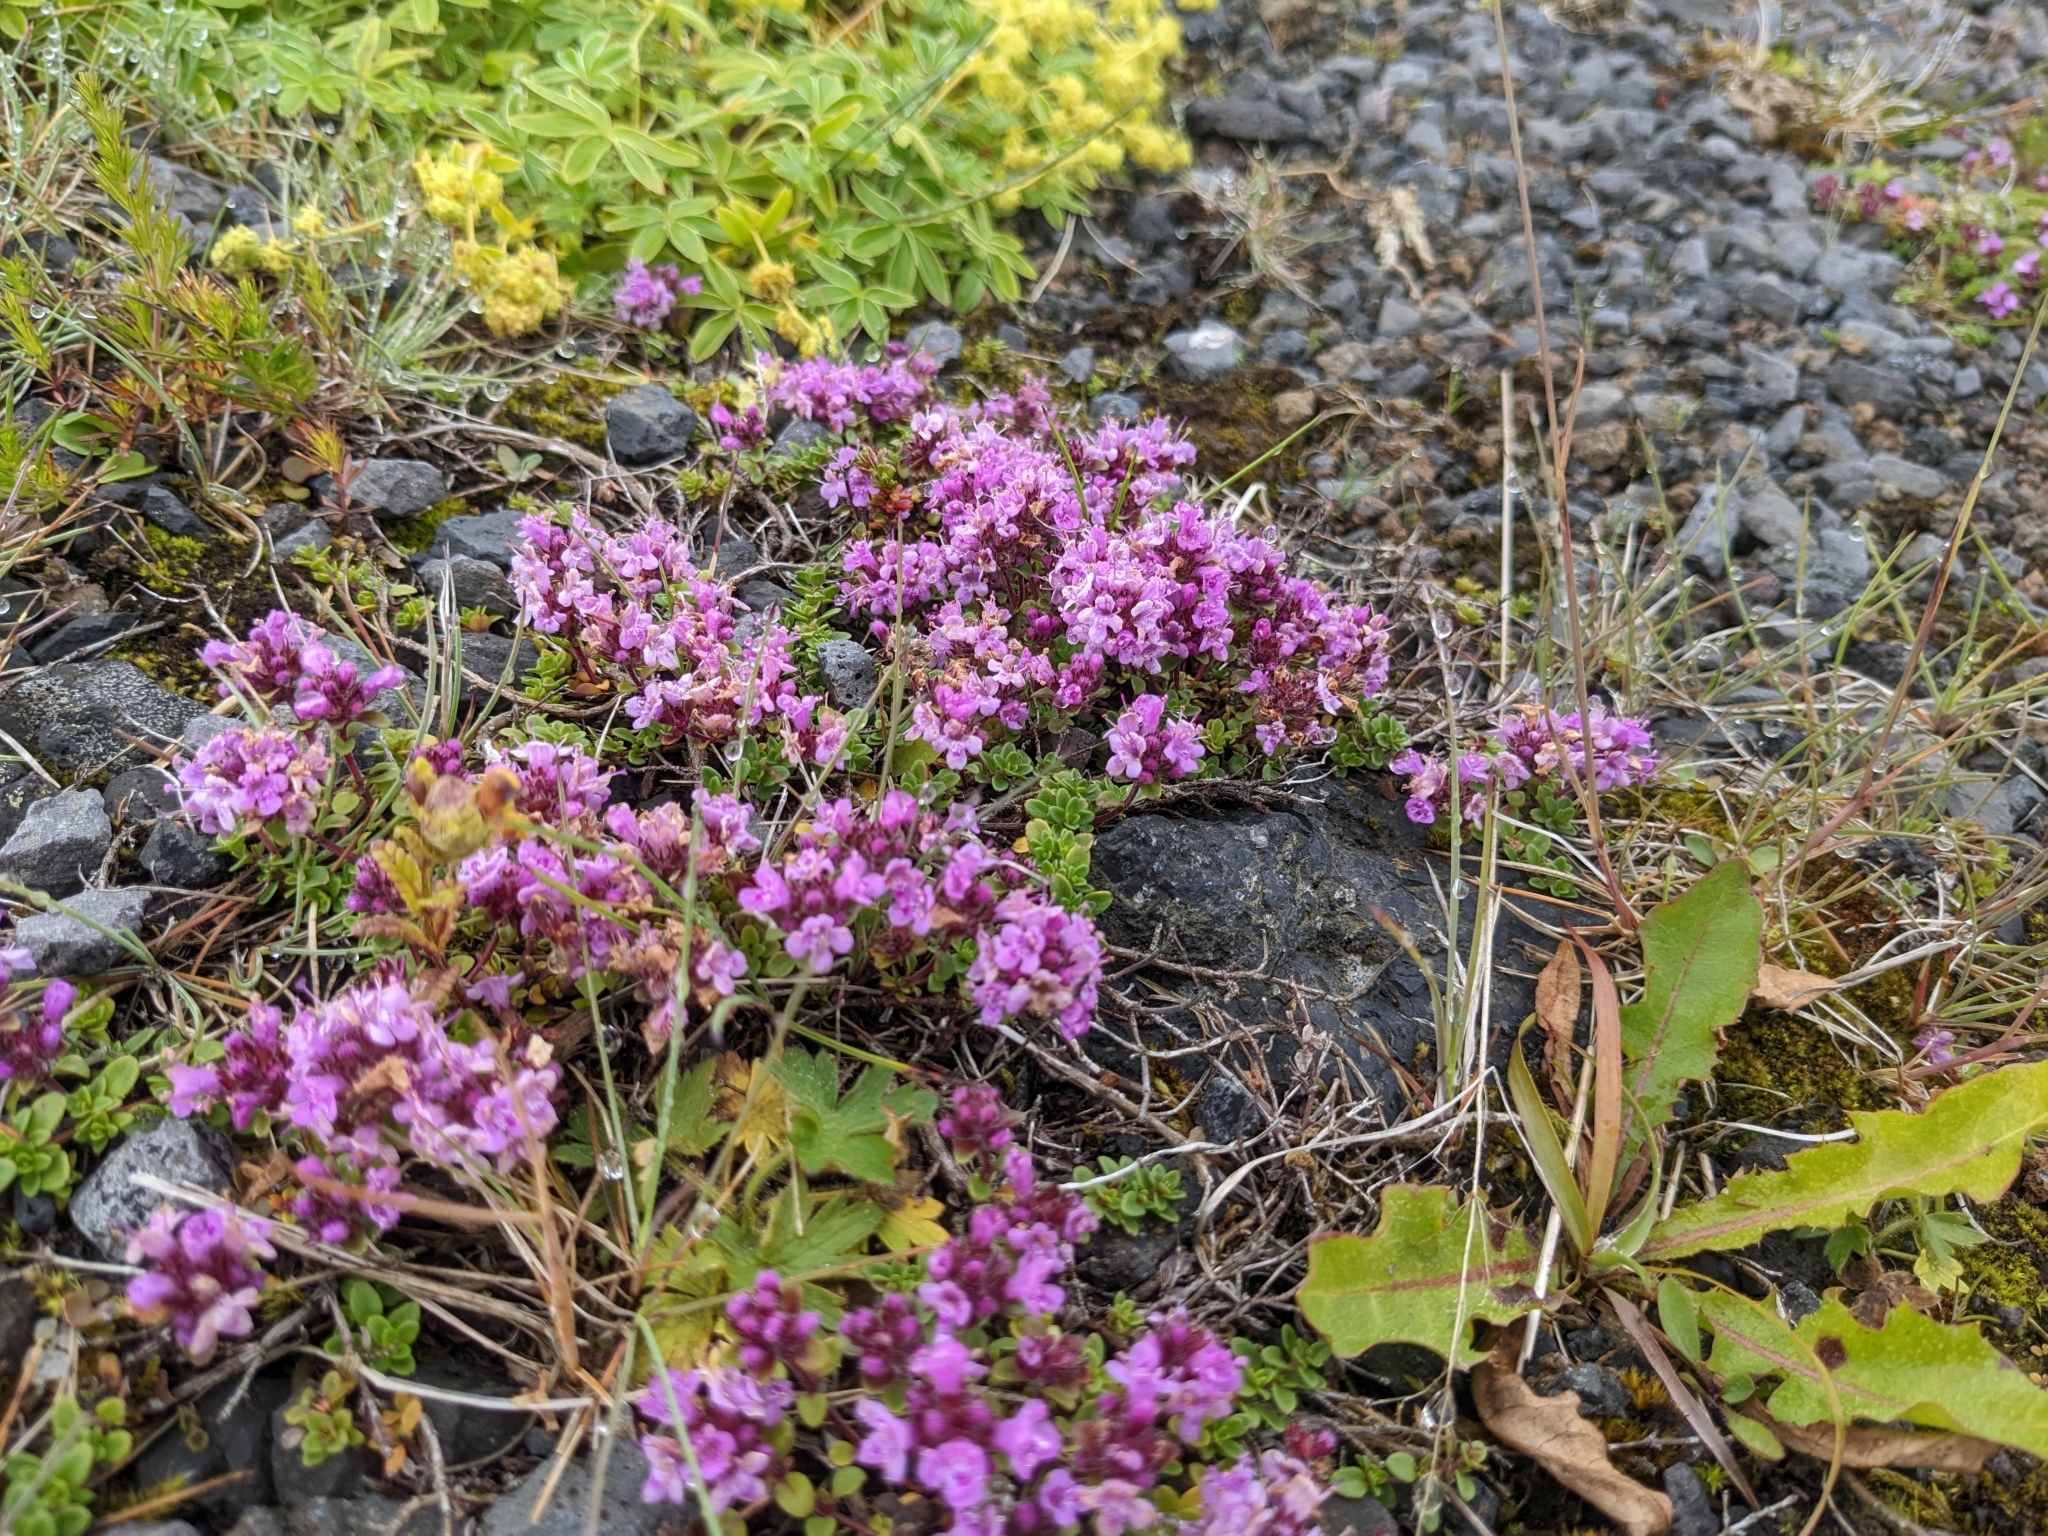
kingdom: Plantae
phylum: Tracheophyta
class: Magnoliopsida
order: Lamiales
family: Lamiaceae
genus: Thymus
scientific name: Thymus praecox
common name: Wild thyme
